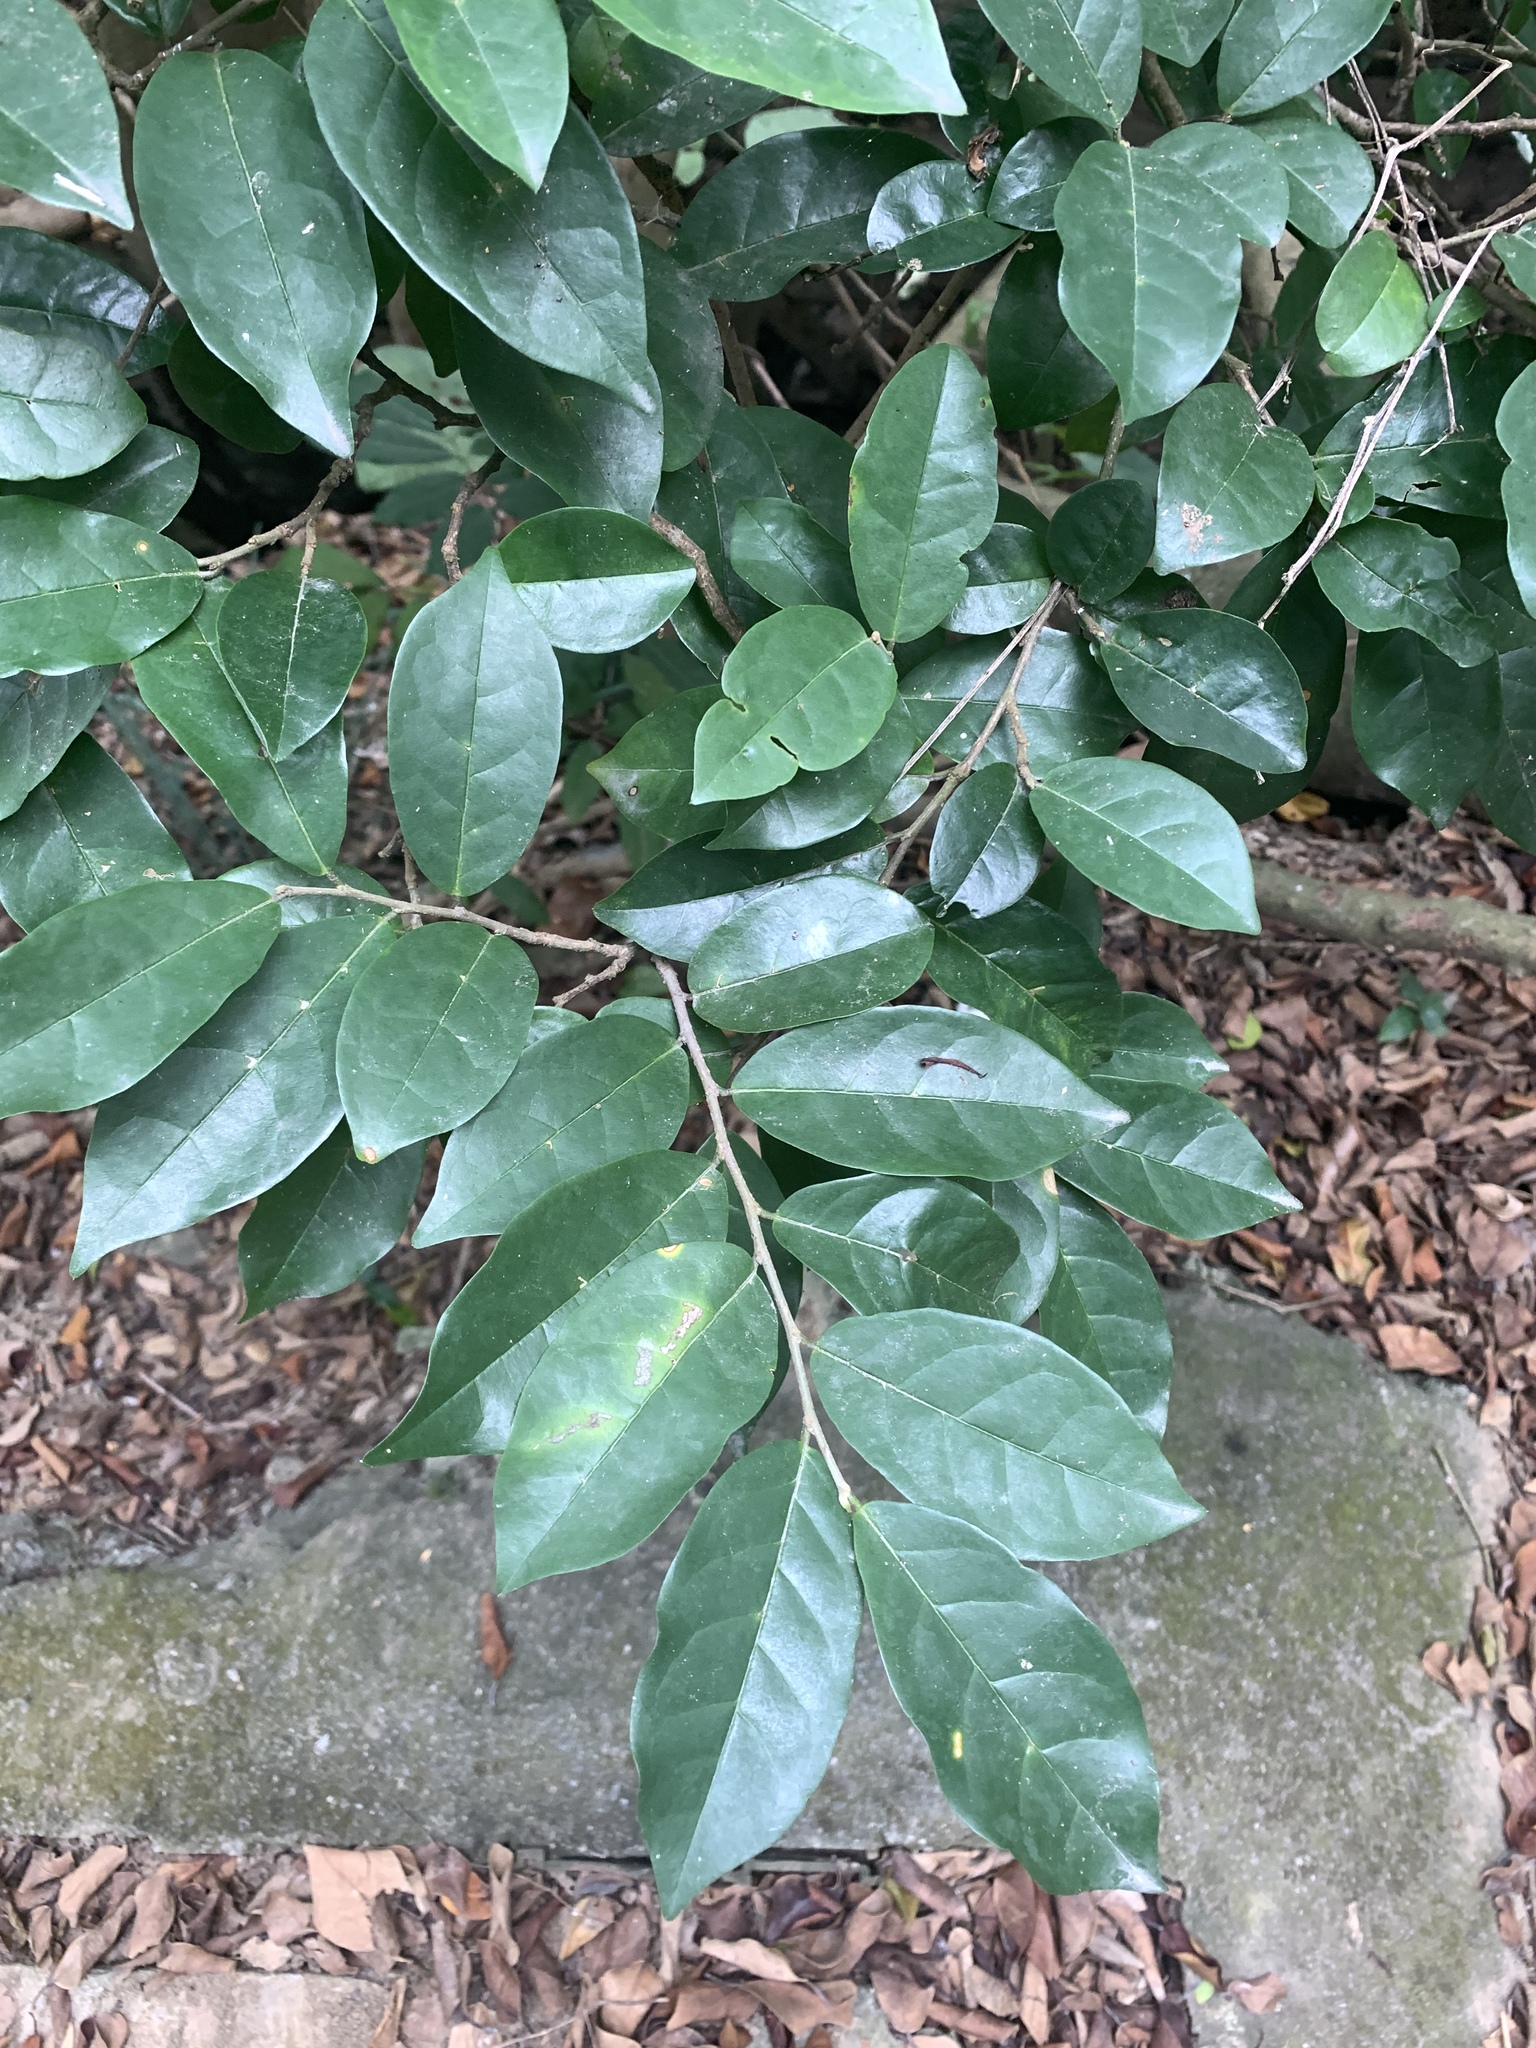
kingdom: Plantae
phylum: Tracheophyta
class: Magnoliopsida
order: Malpighiales
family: Phyllanthaceae
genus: Antidesma
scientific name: Antidesma montanum
